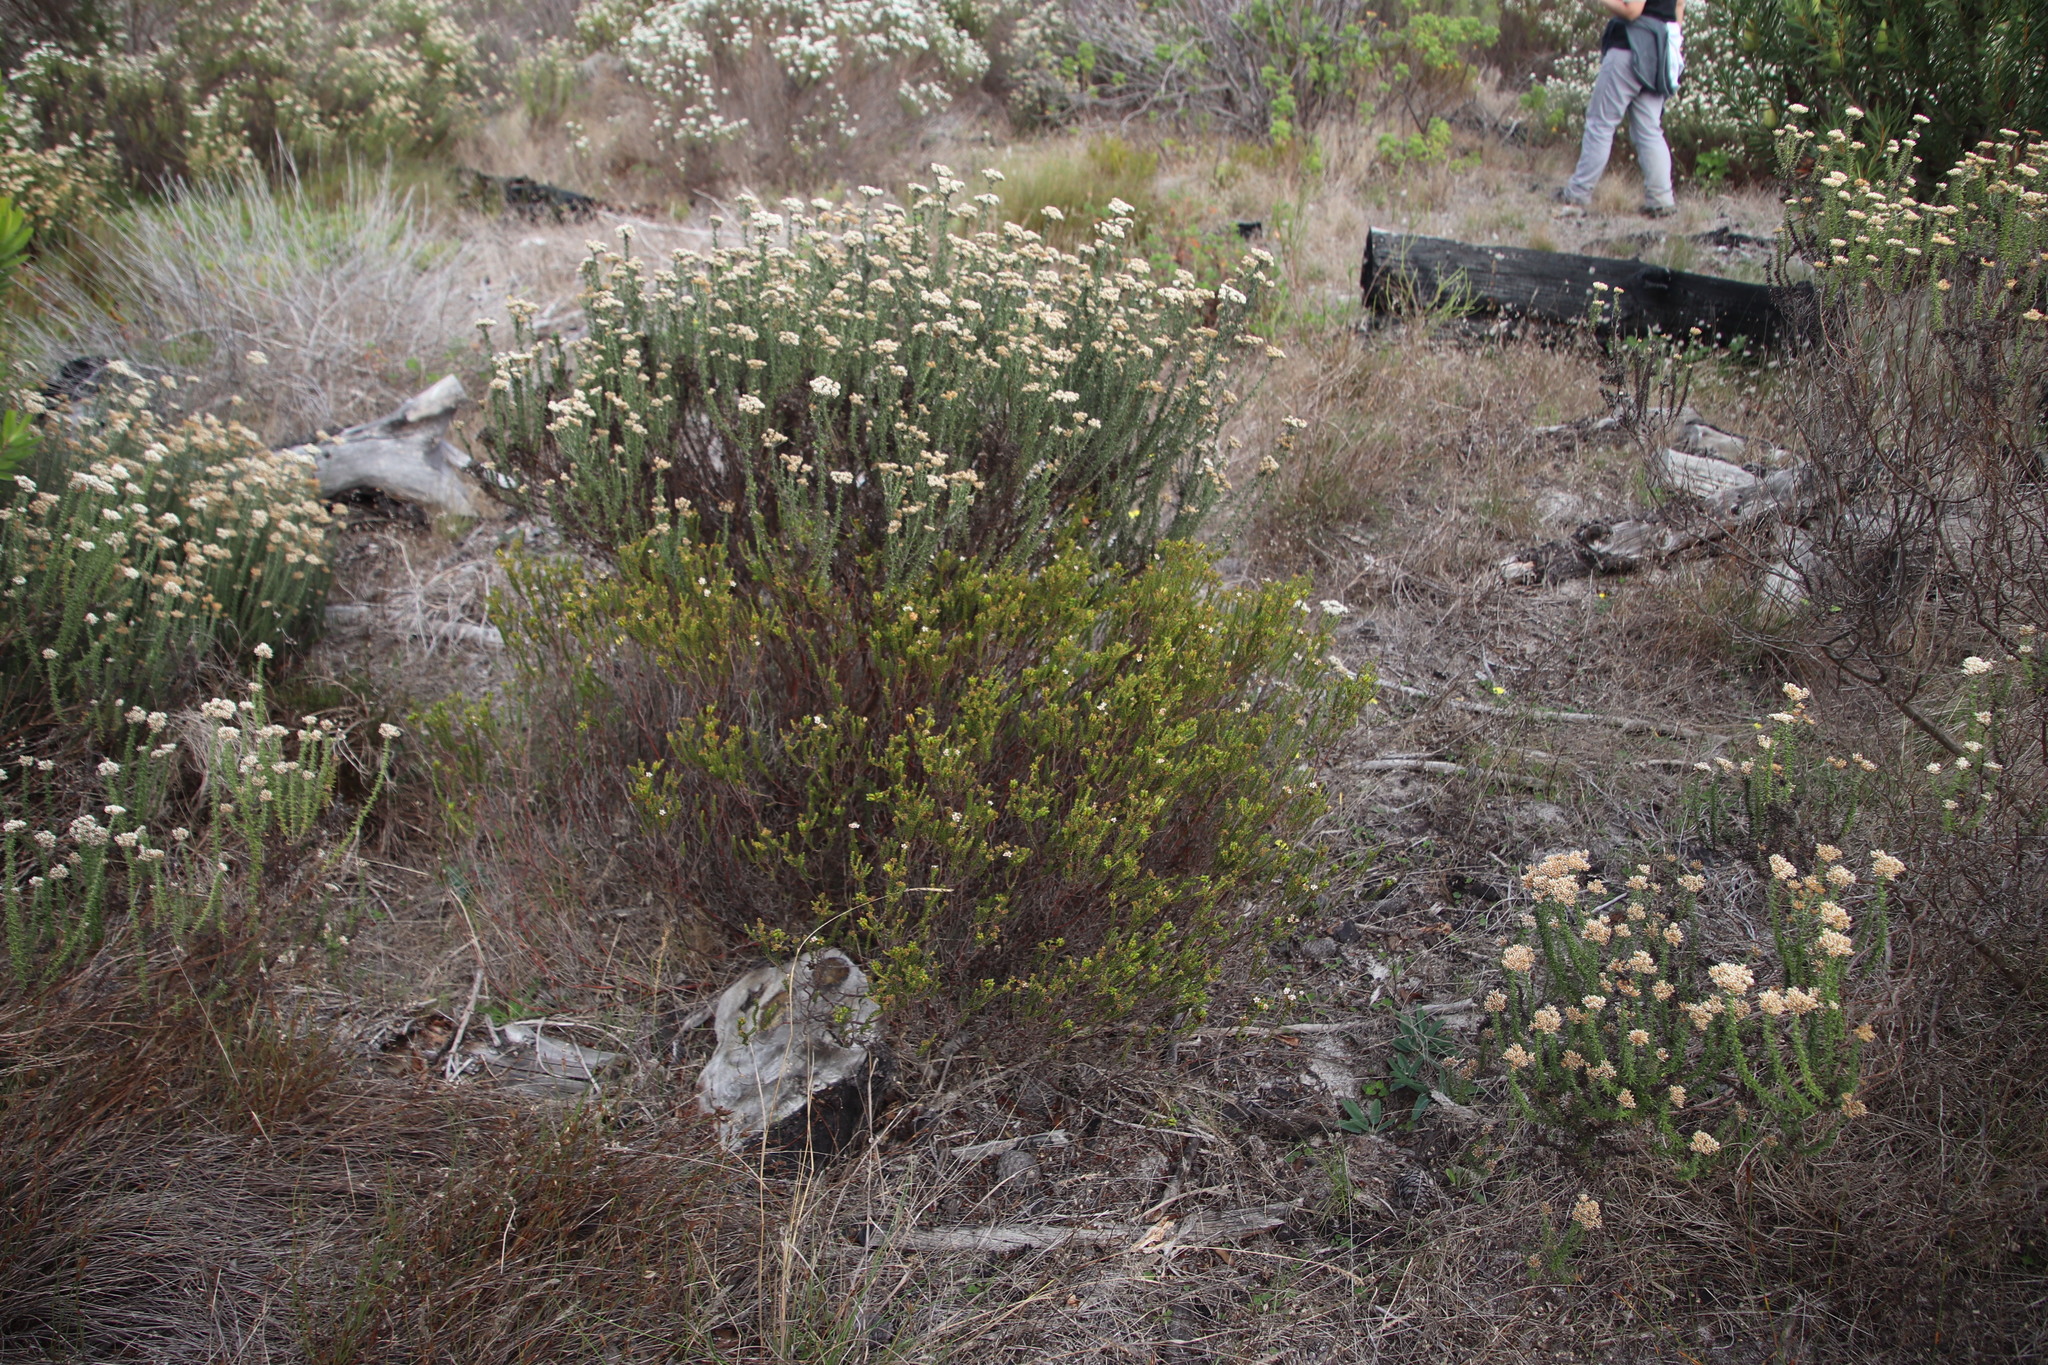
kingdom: Plantae
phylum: Tracheophyta
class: Magnoliopsida
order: Sapindales
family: Rutaceae
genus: Diosma
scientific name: Diosma oppositifolia
